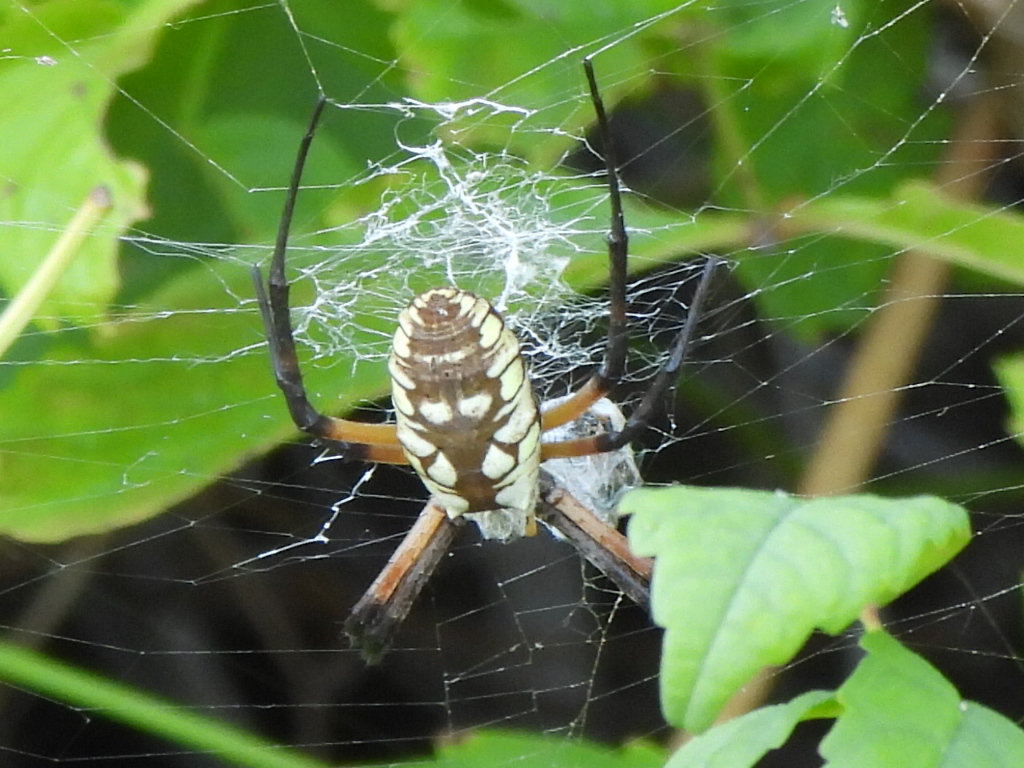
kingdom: Animalia
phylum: Arthropoda
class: Arachnida
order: Araneae
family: Araneidae
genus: Argiope
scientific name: Argiope aurantia
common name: Orb weavers
